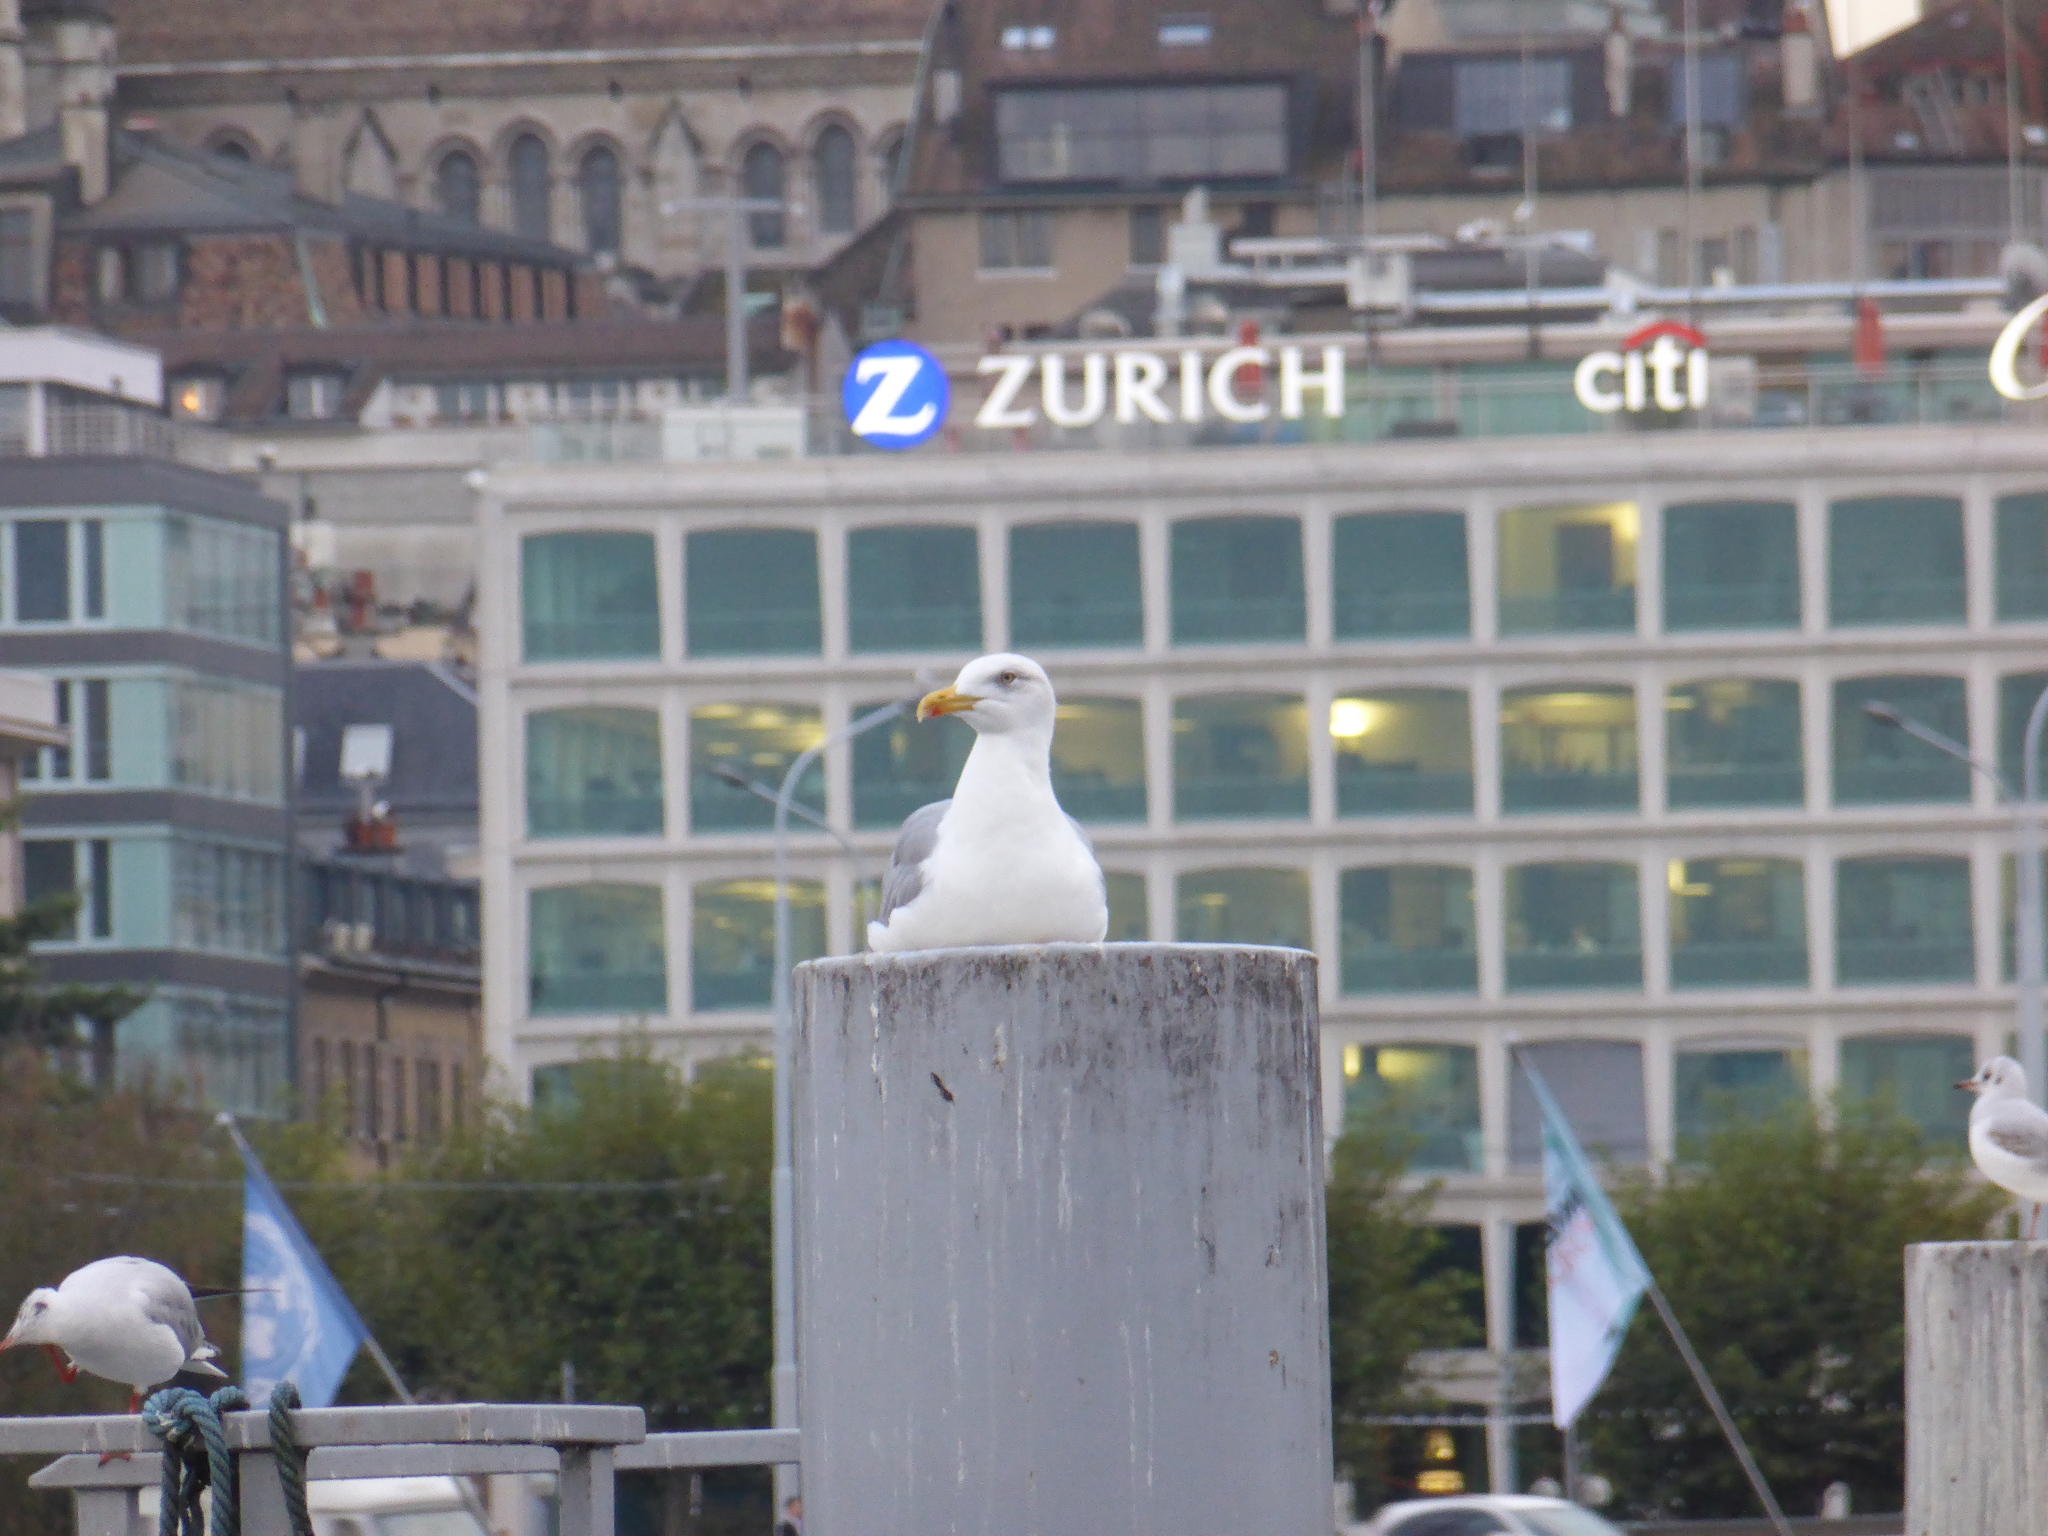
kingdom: Animalia
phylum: Chordata
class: Aves
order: Charadriiformes
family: Laridae
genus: Larus
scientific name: Larus michahellis
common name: Yellow-legged gull
